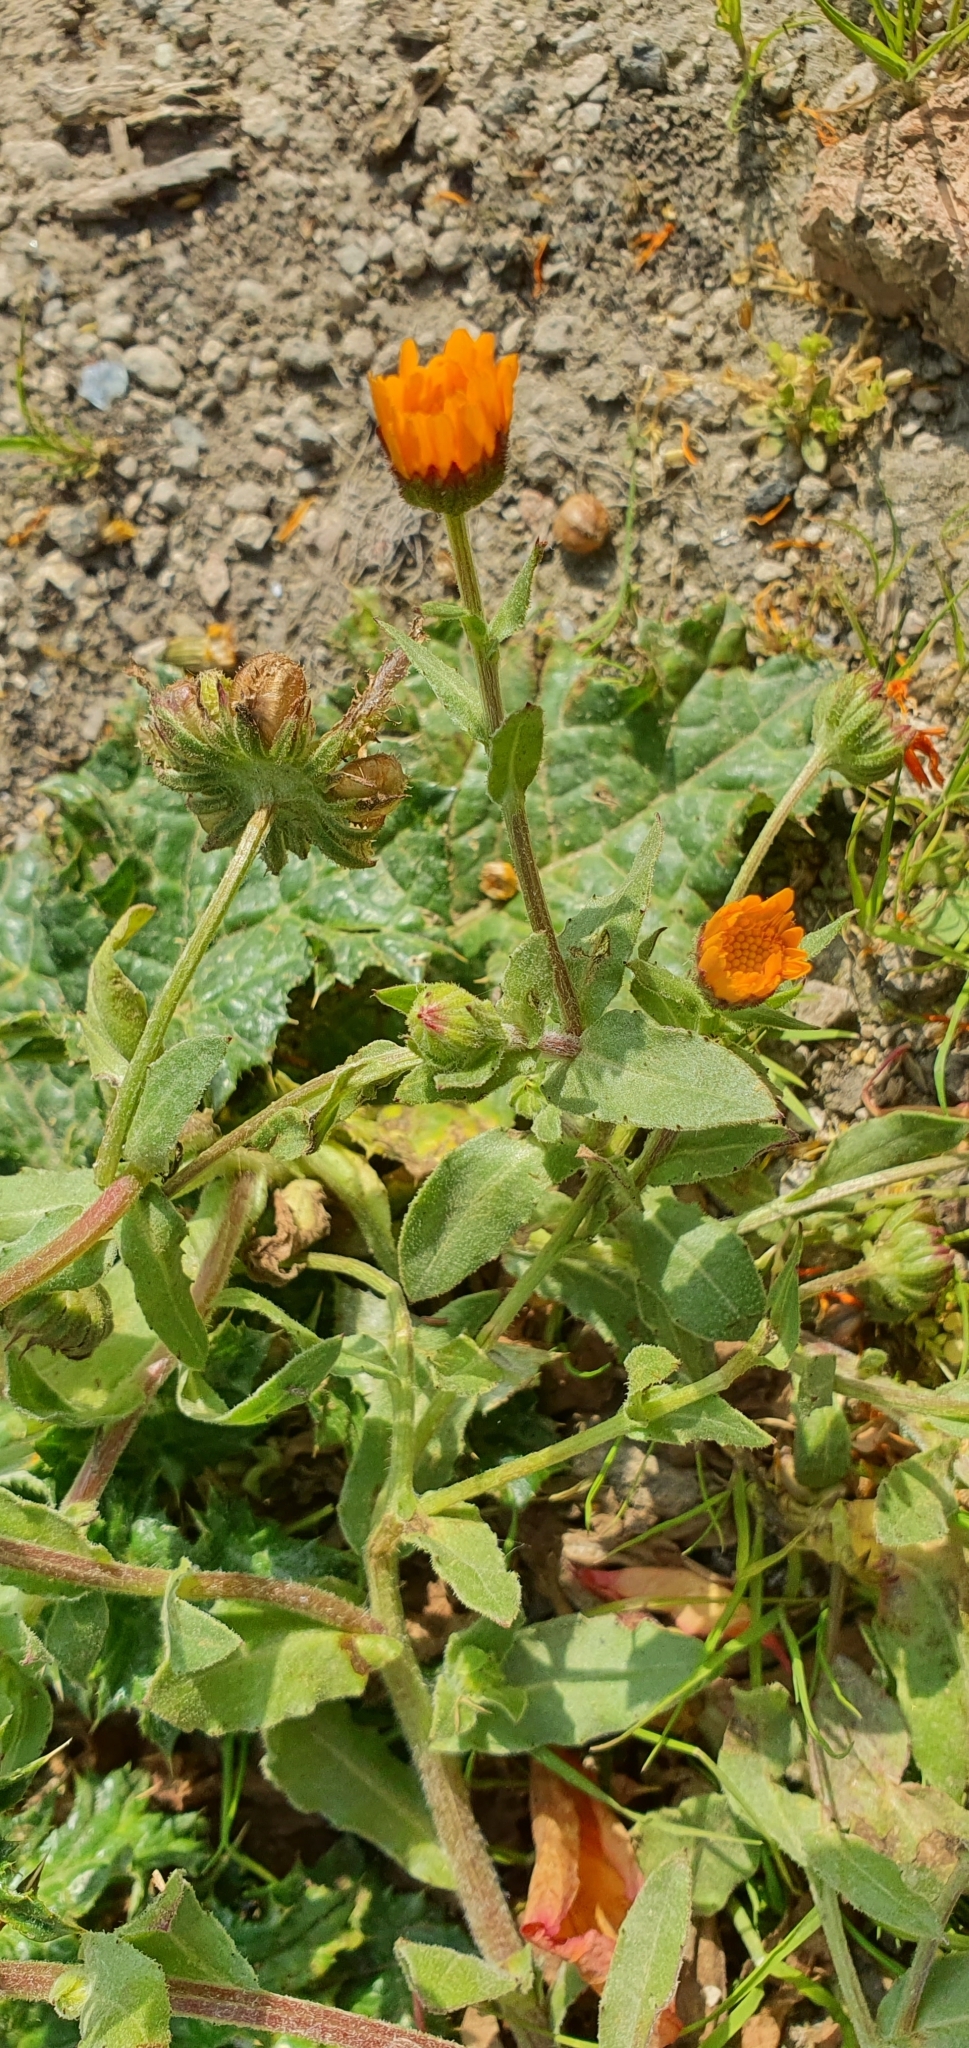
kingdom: Plantae
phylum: Tracheophyta
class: Magnoliopsida
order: Asterales
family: Asteraceae
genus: Calendula
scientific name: Calendula arvensis
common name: Field marigold
